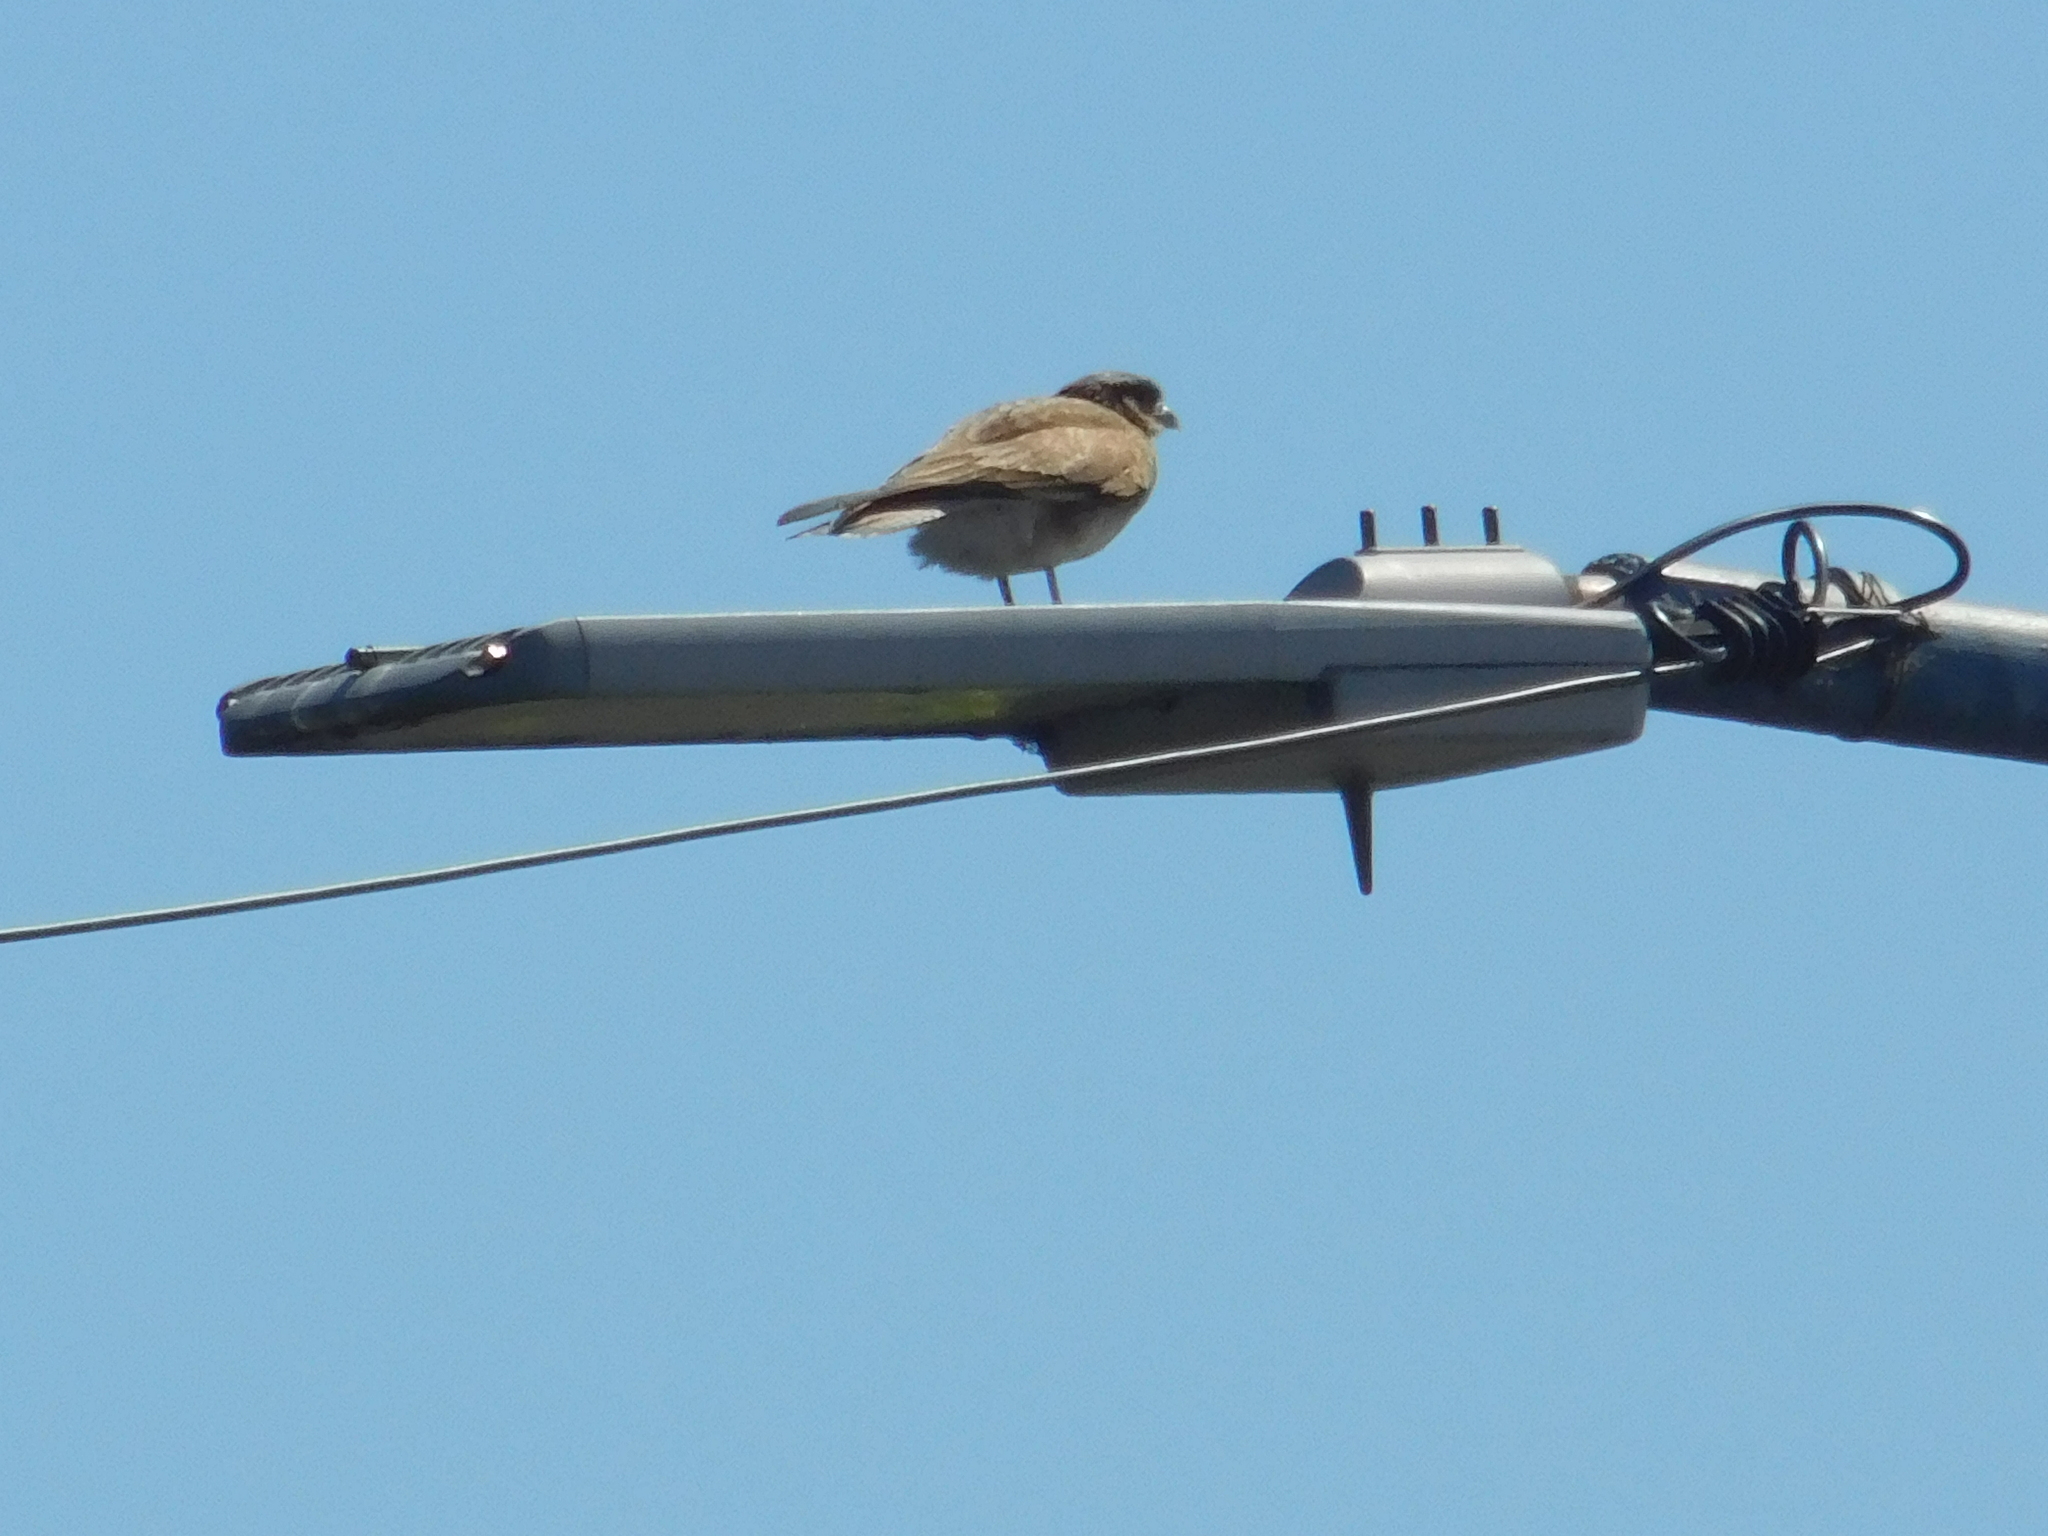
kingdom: Animalia
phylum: Chordata
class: Aves
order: Falconiformes
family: Falconidae
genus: Daptrius
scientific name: Daptrius
